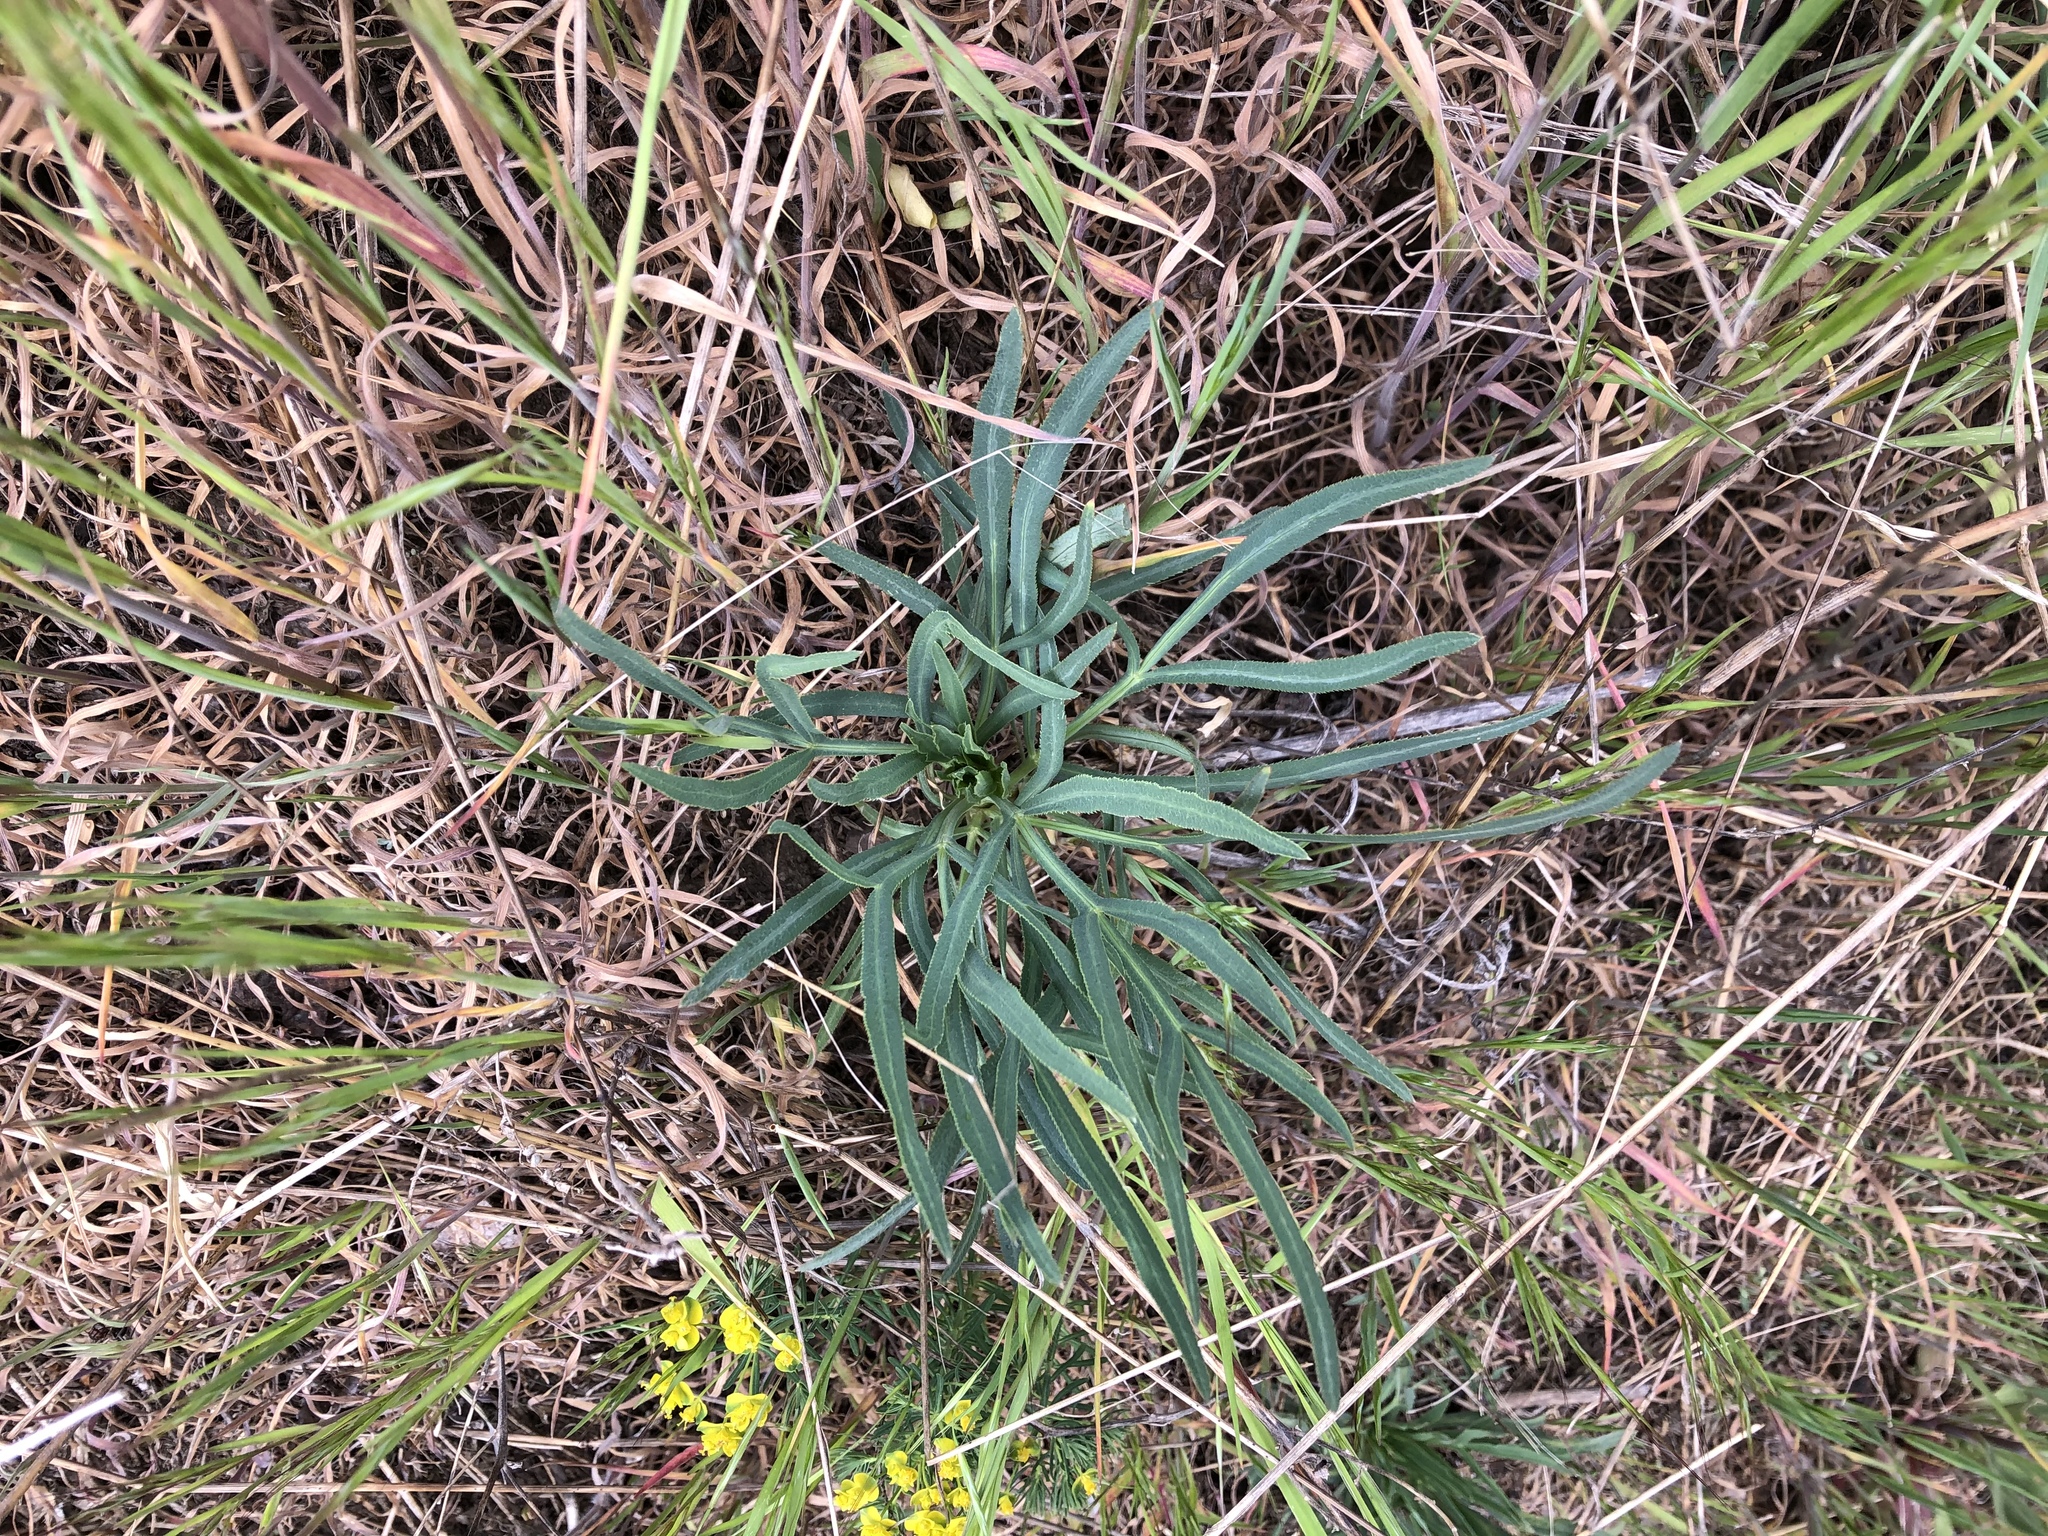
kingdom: Plantae
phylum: Tracheophyta
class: Magnoliopsida
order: Apiales
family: Apiaceae
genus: Falcaria
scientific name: Falcaria vulgaris
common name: Longleaf
